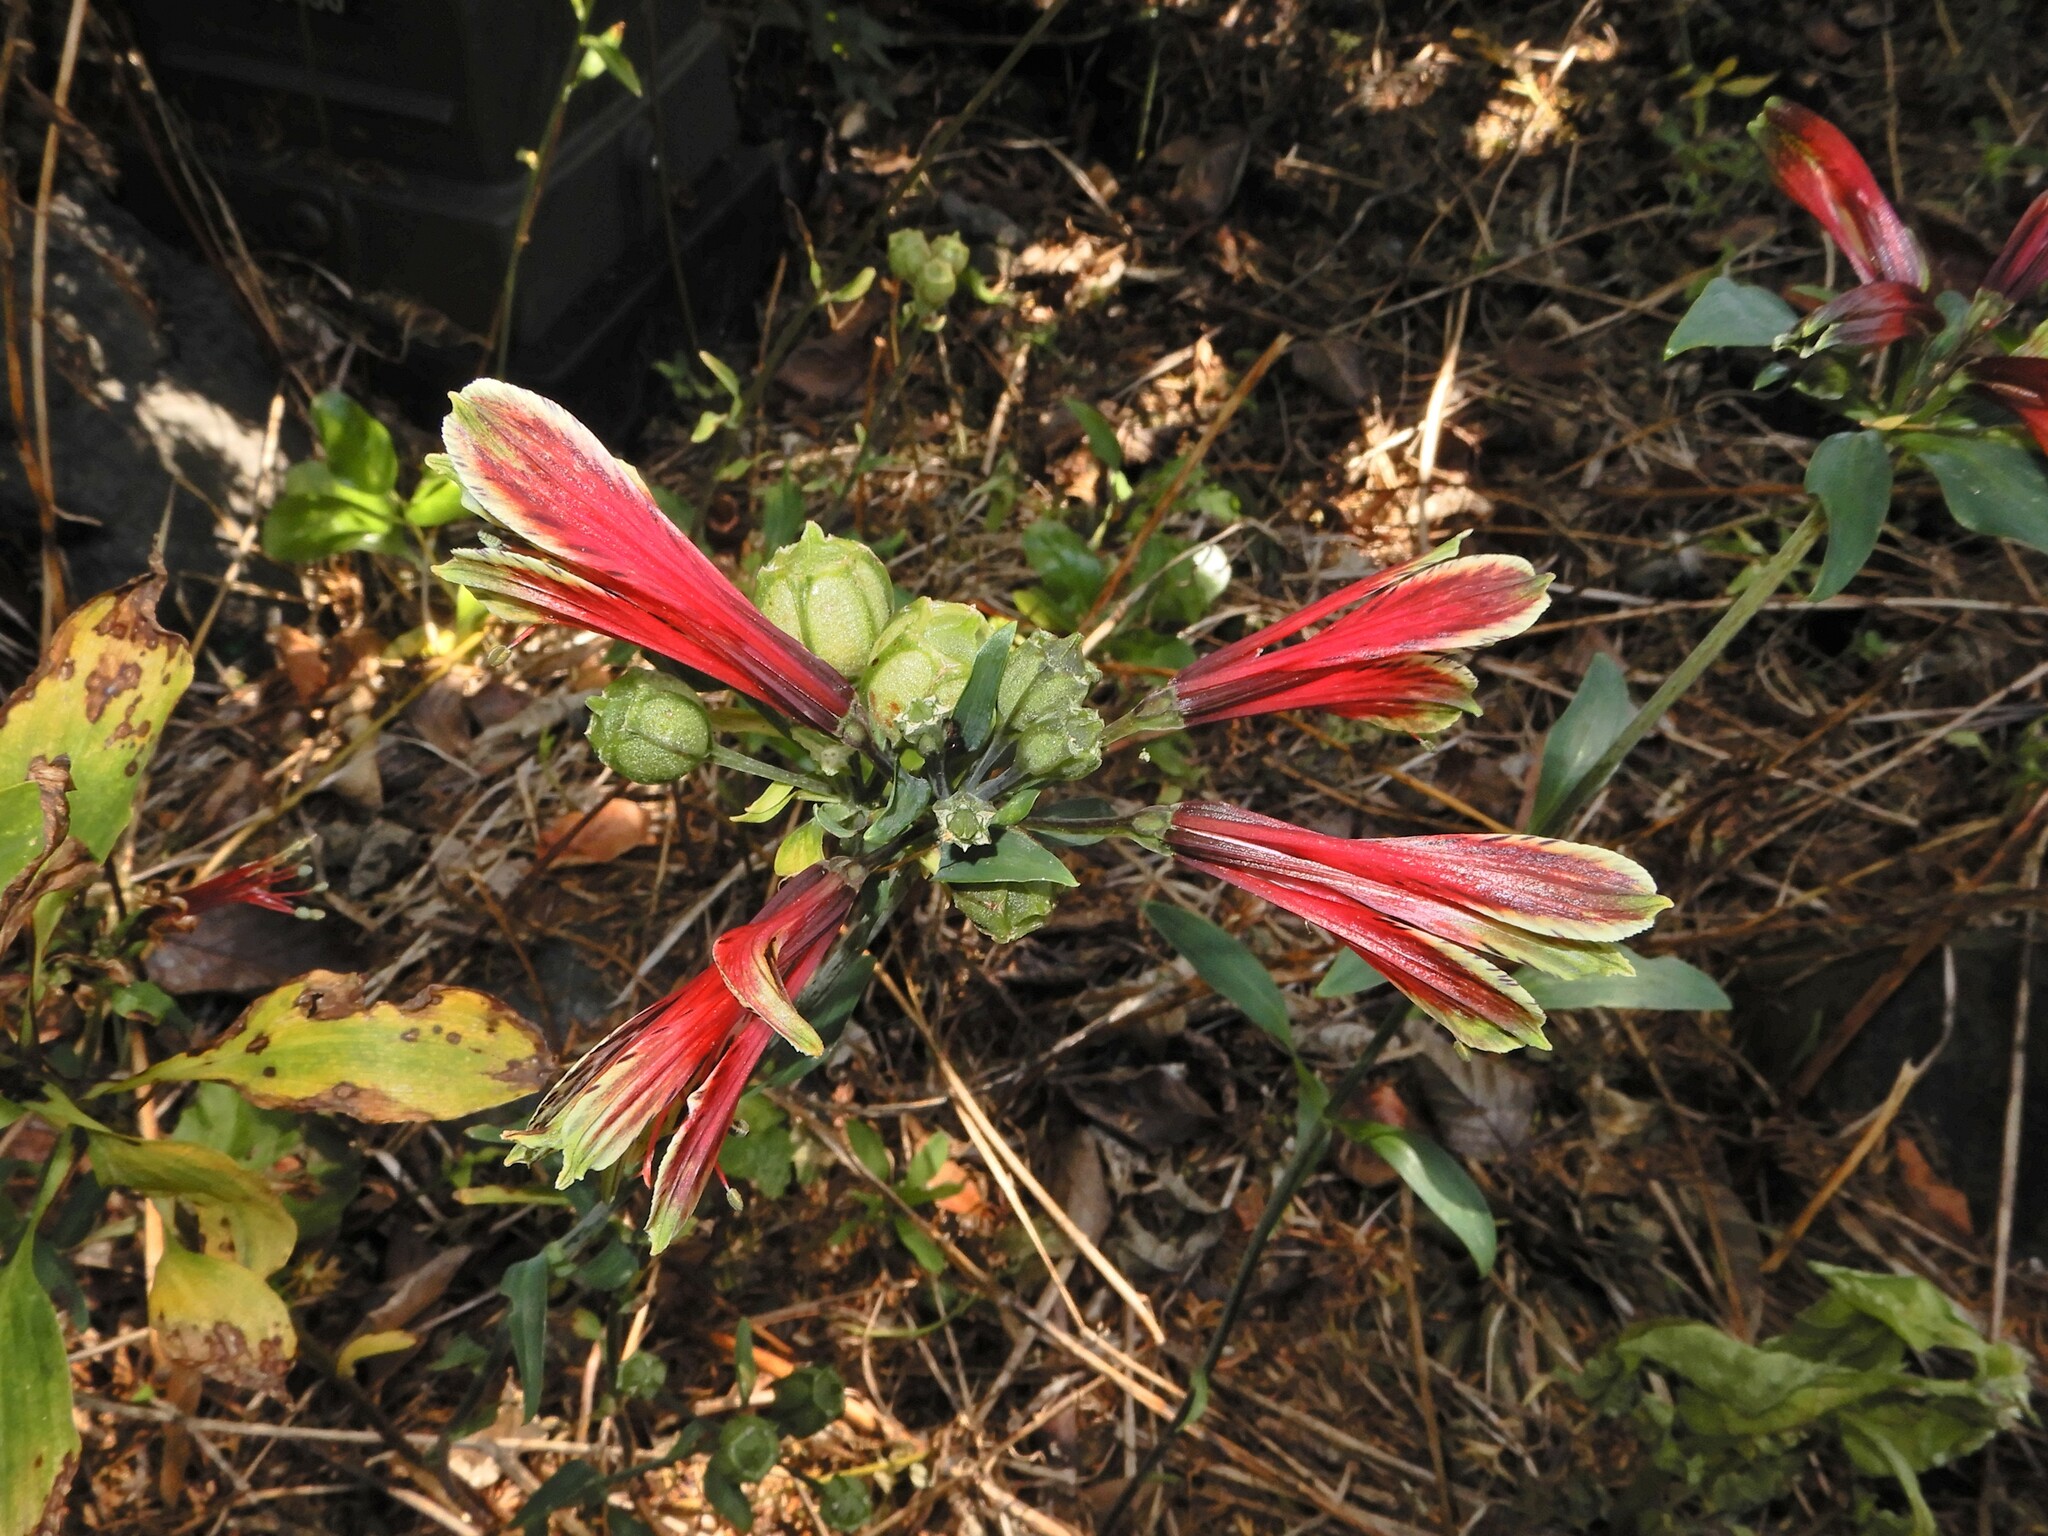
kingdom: Plantae
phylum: Tracheophyta
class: Liliopsida
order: Liliales
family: Alstroemeriaceae
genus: Alstroemeria
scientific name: Alstroemeria psittacina
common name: Peruvian-lily
